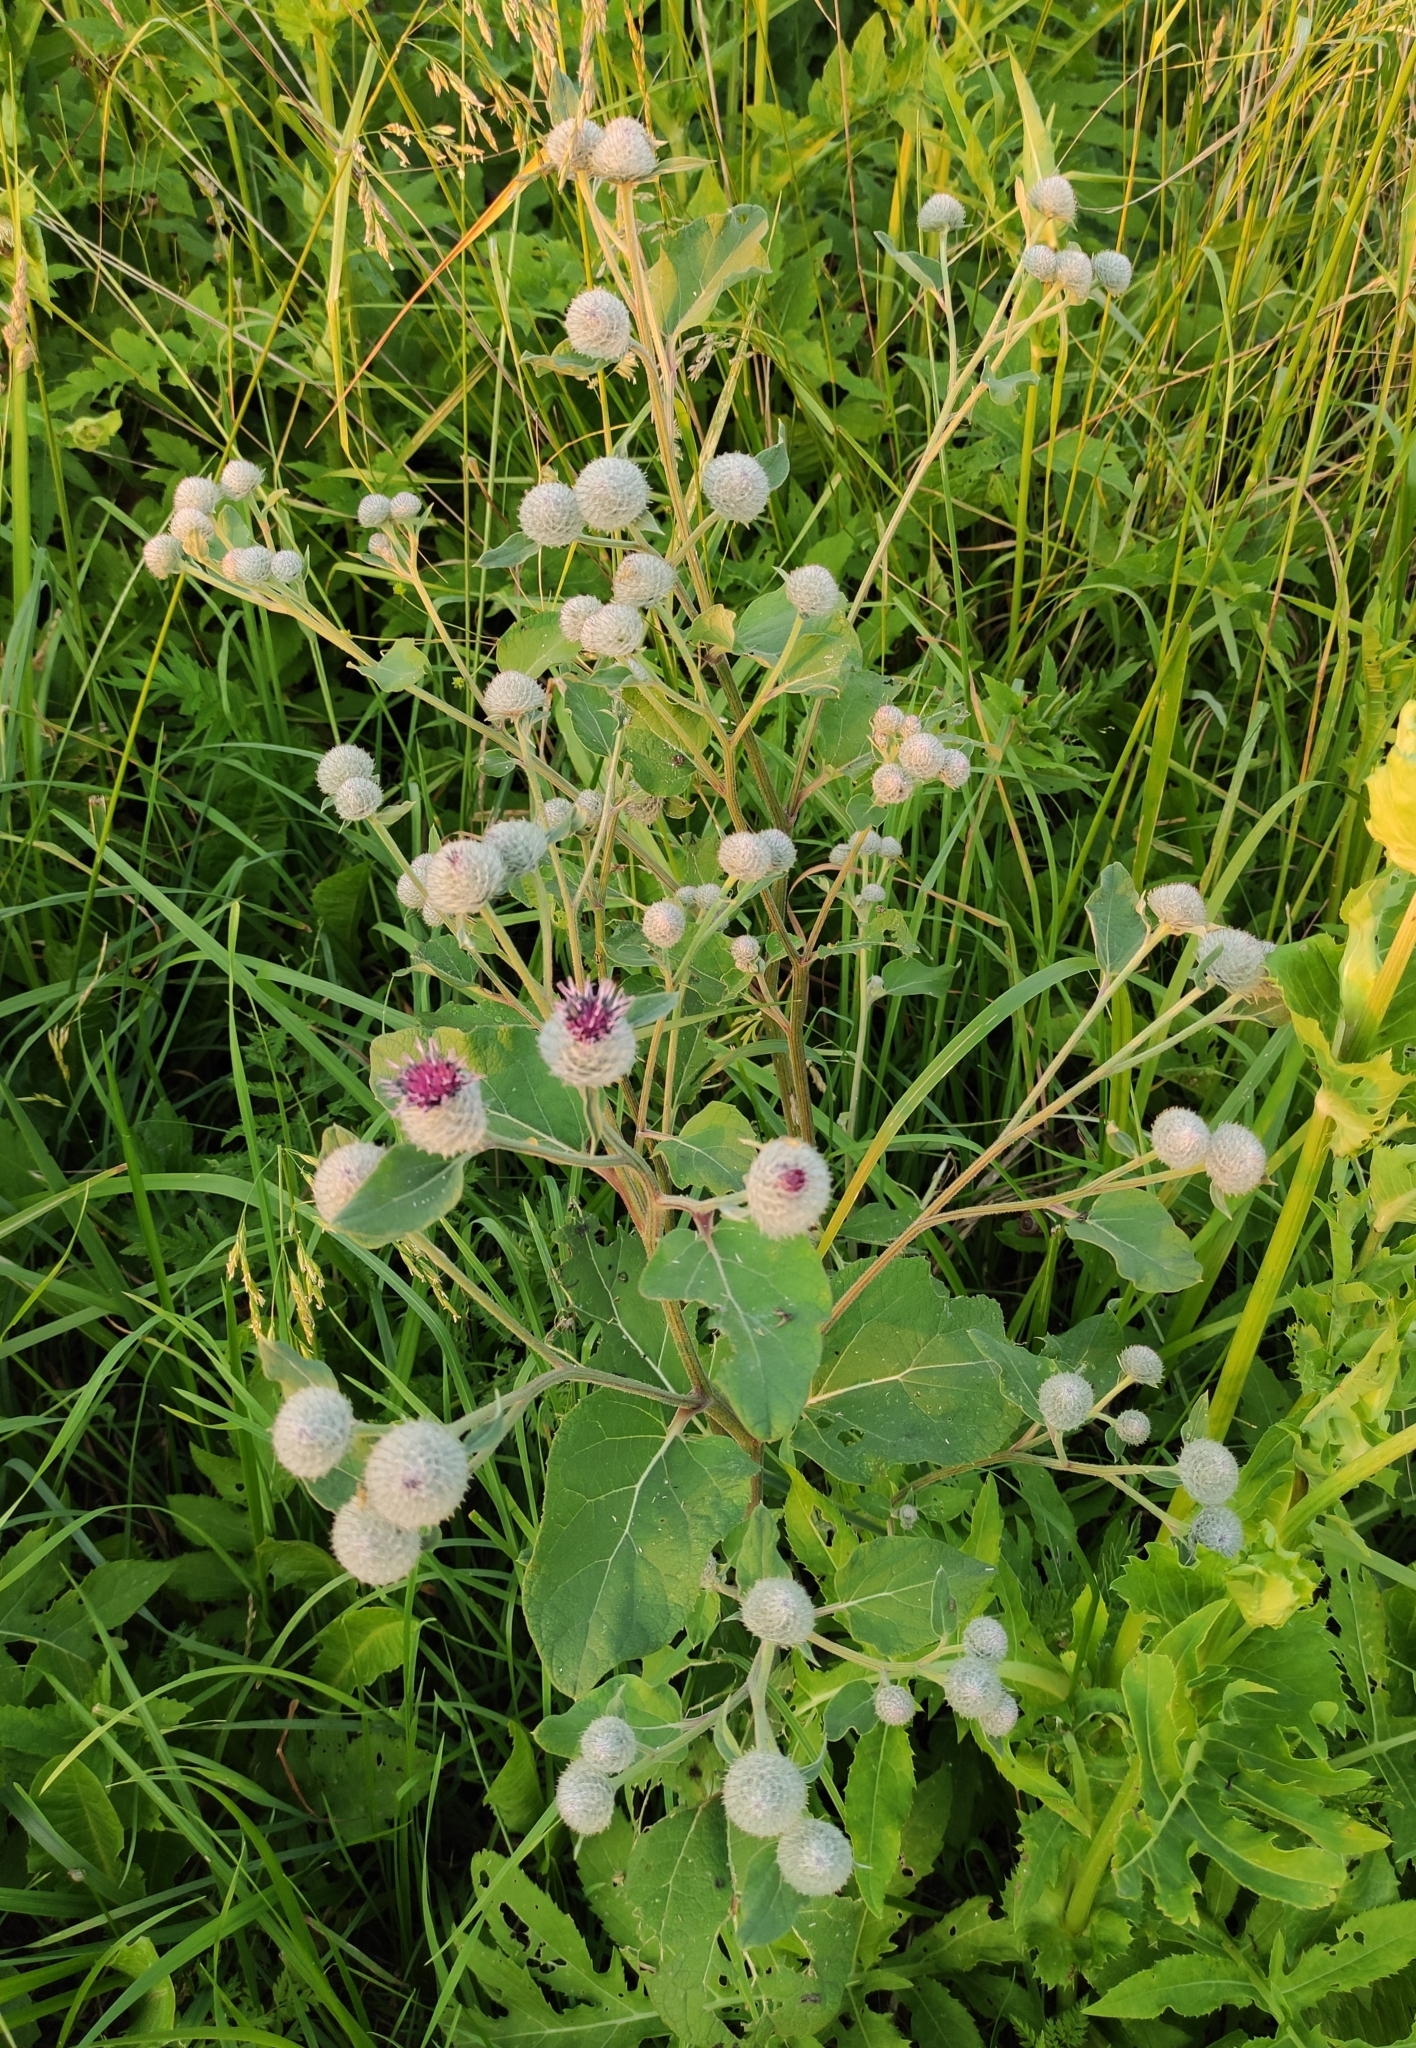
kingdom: Plantae
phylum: Tracheophyta
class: Magnoliopsida
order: Asterales
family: Asteraceae
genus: Arctium
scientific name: Arctium tomentosum
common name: Woolly burdock
